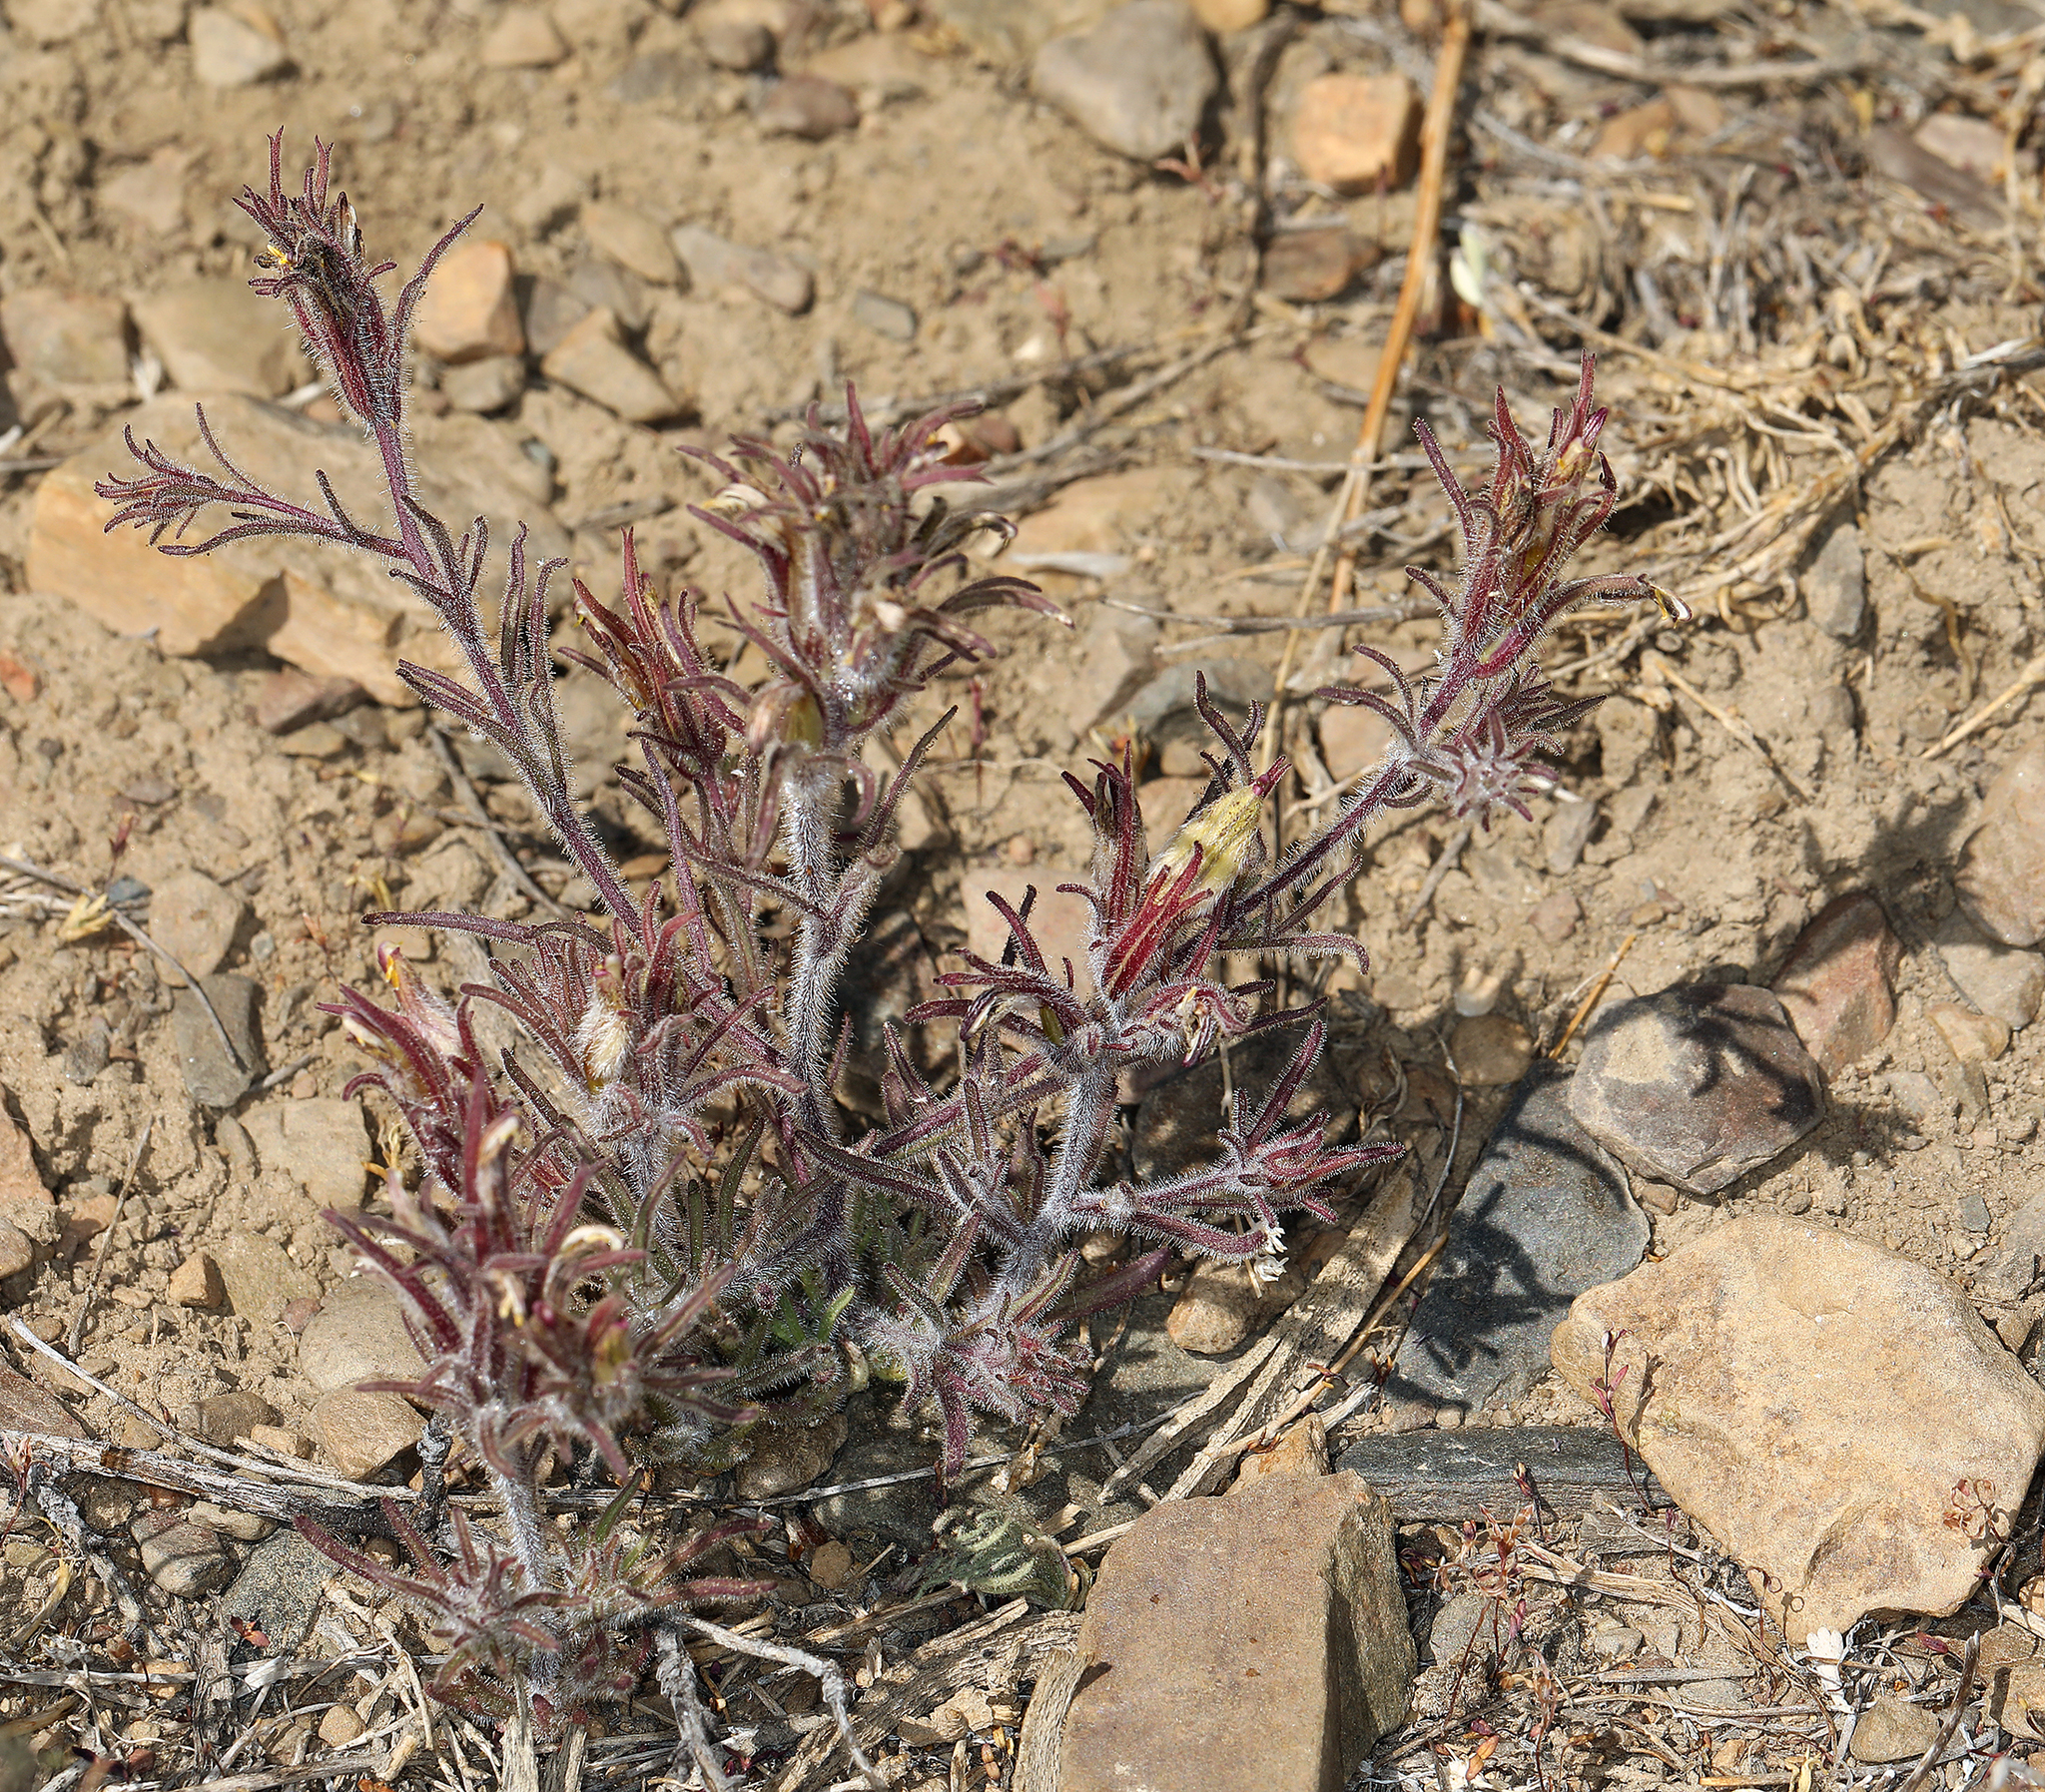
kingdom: Plantae
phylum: Tracheophyta
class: Magnoliopsida
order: Lamiales
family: Orobanchaceae
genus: Cordylanthus
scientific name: Cordylanthus kingii
